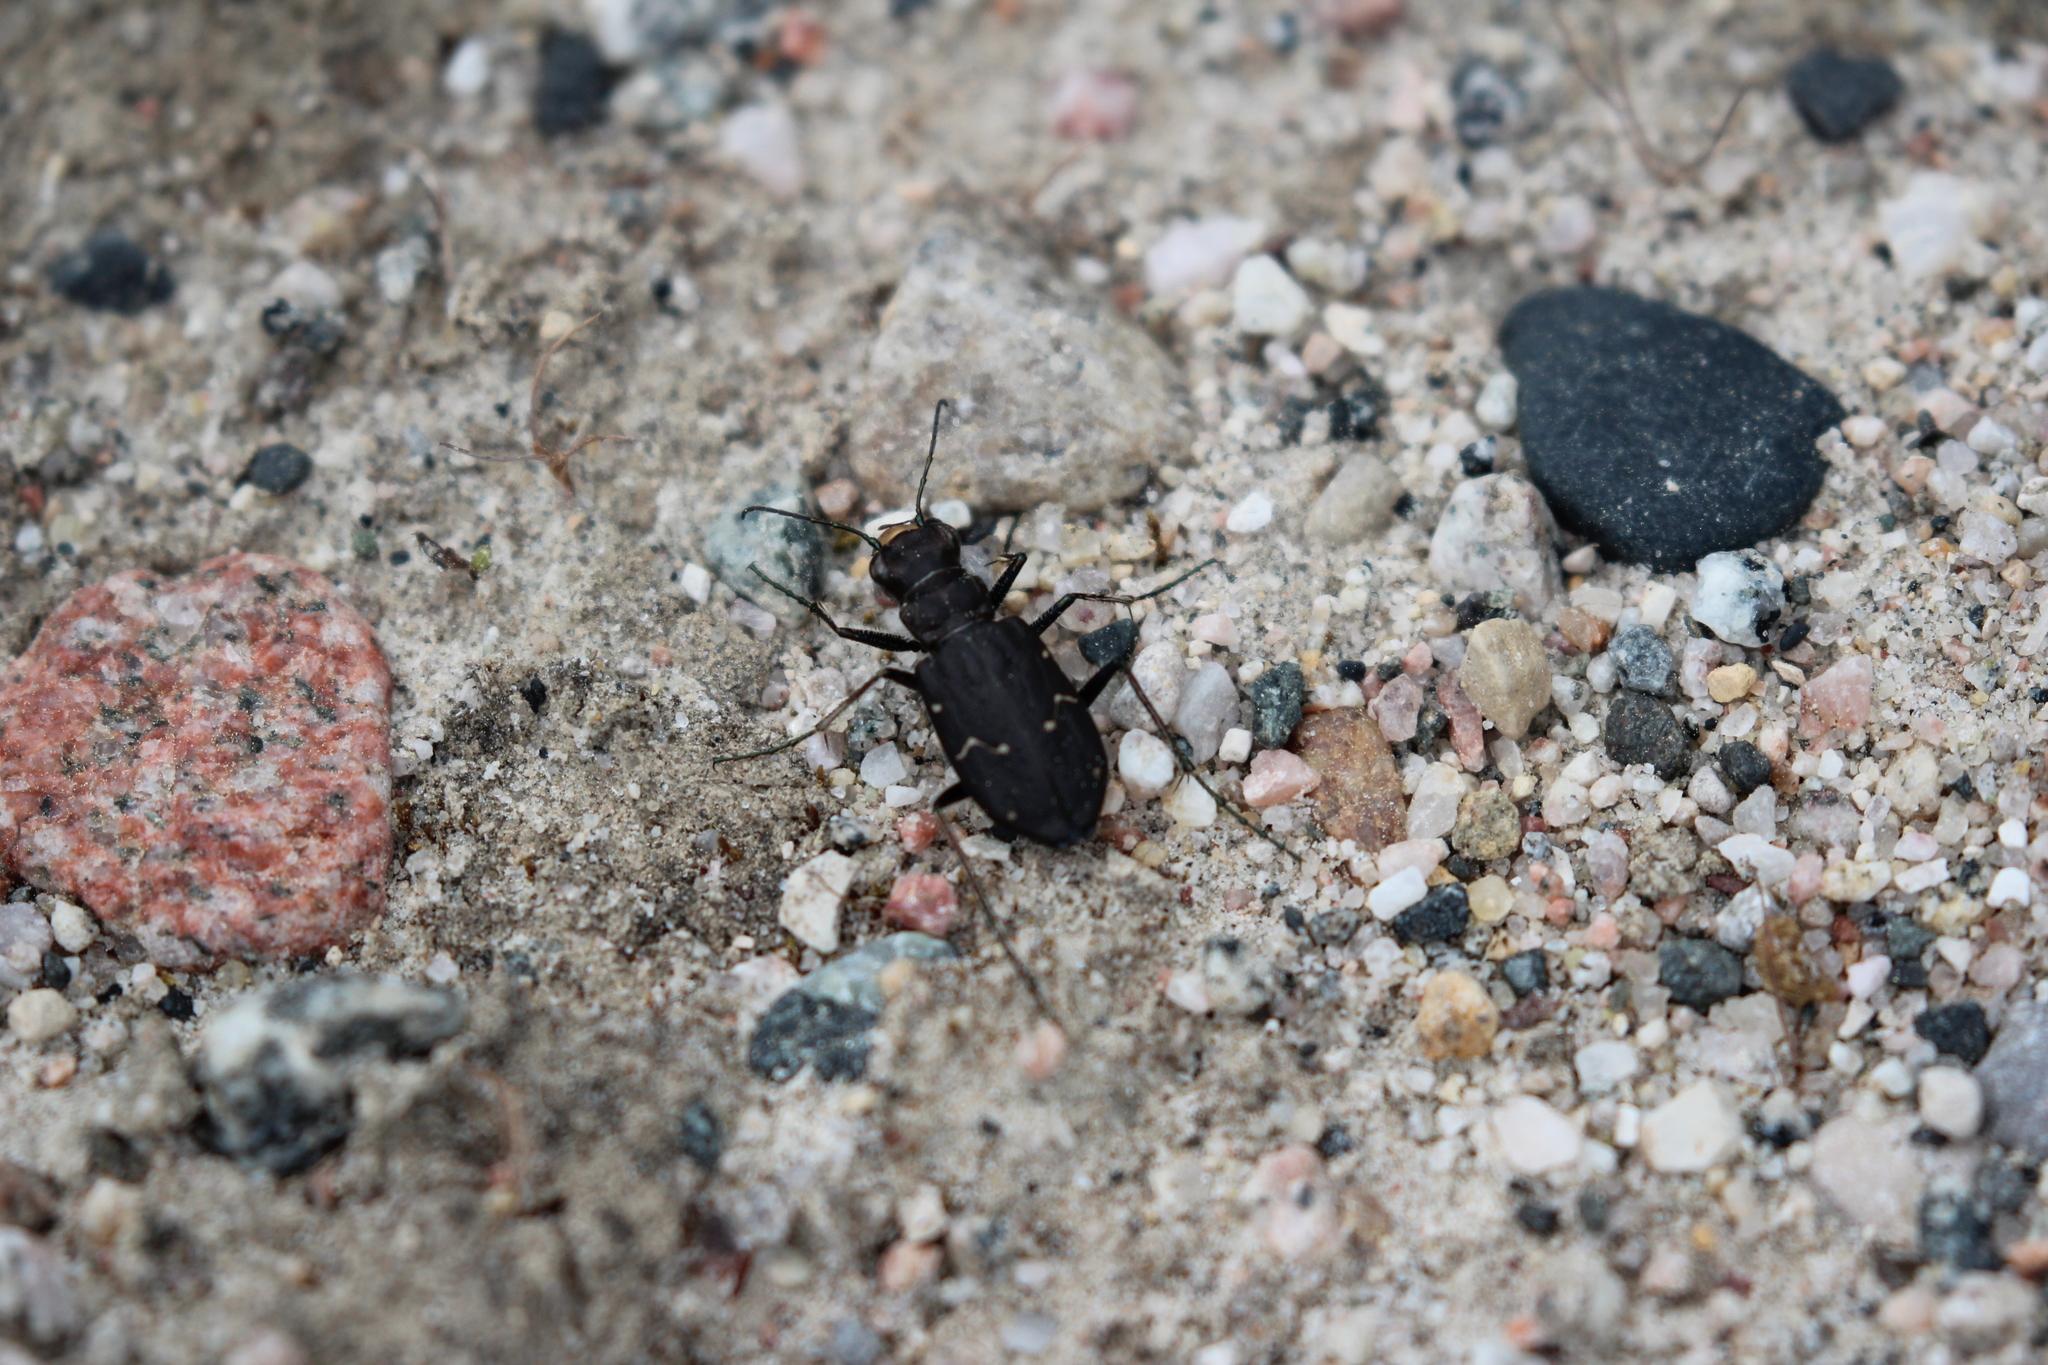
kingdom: Animalia
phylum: Arthropoda
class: Insecta
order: Coleoptera
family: Carabidae
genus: Cicindela
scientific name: Cicindela longilabris
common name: Boreal long-lipped tiger beetle
